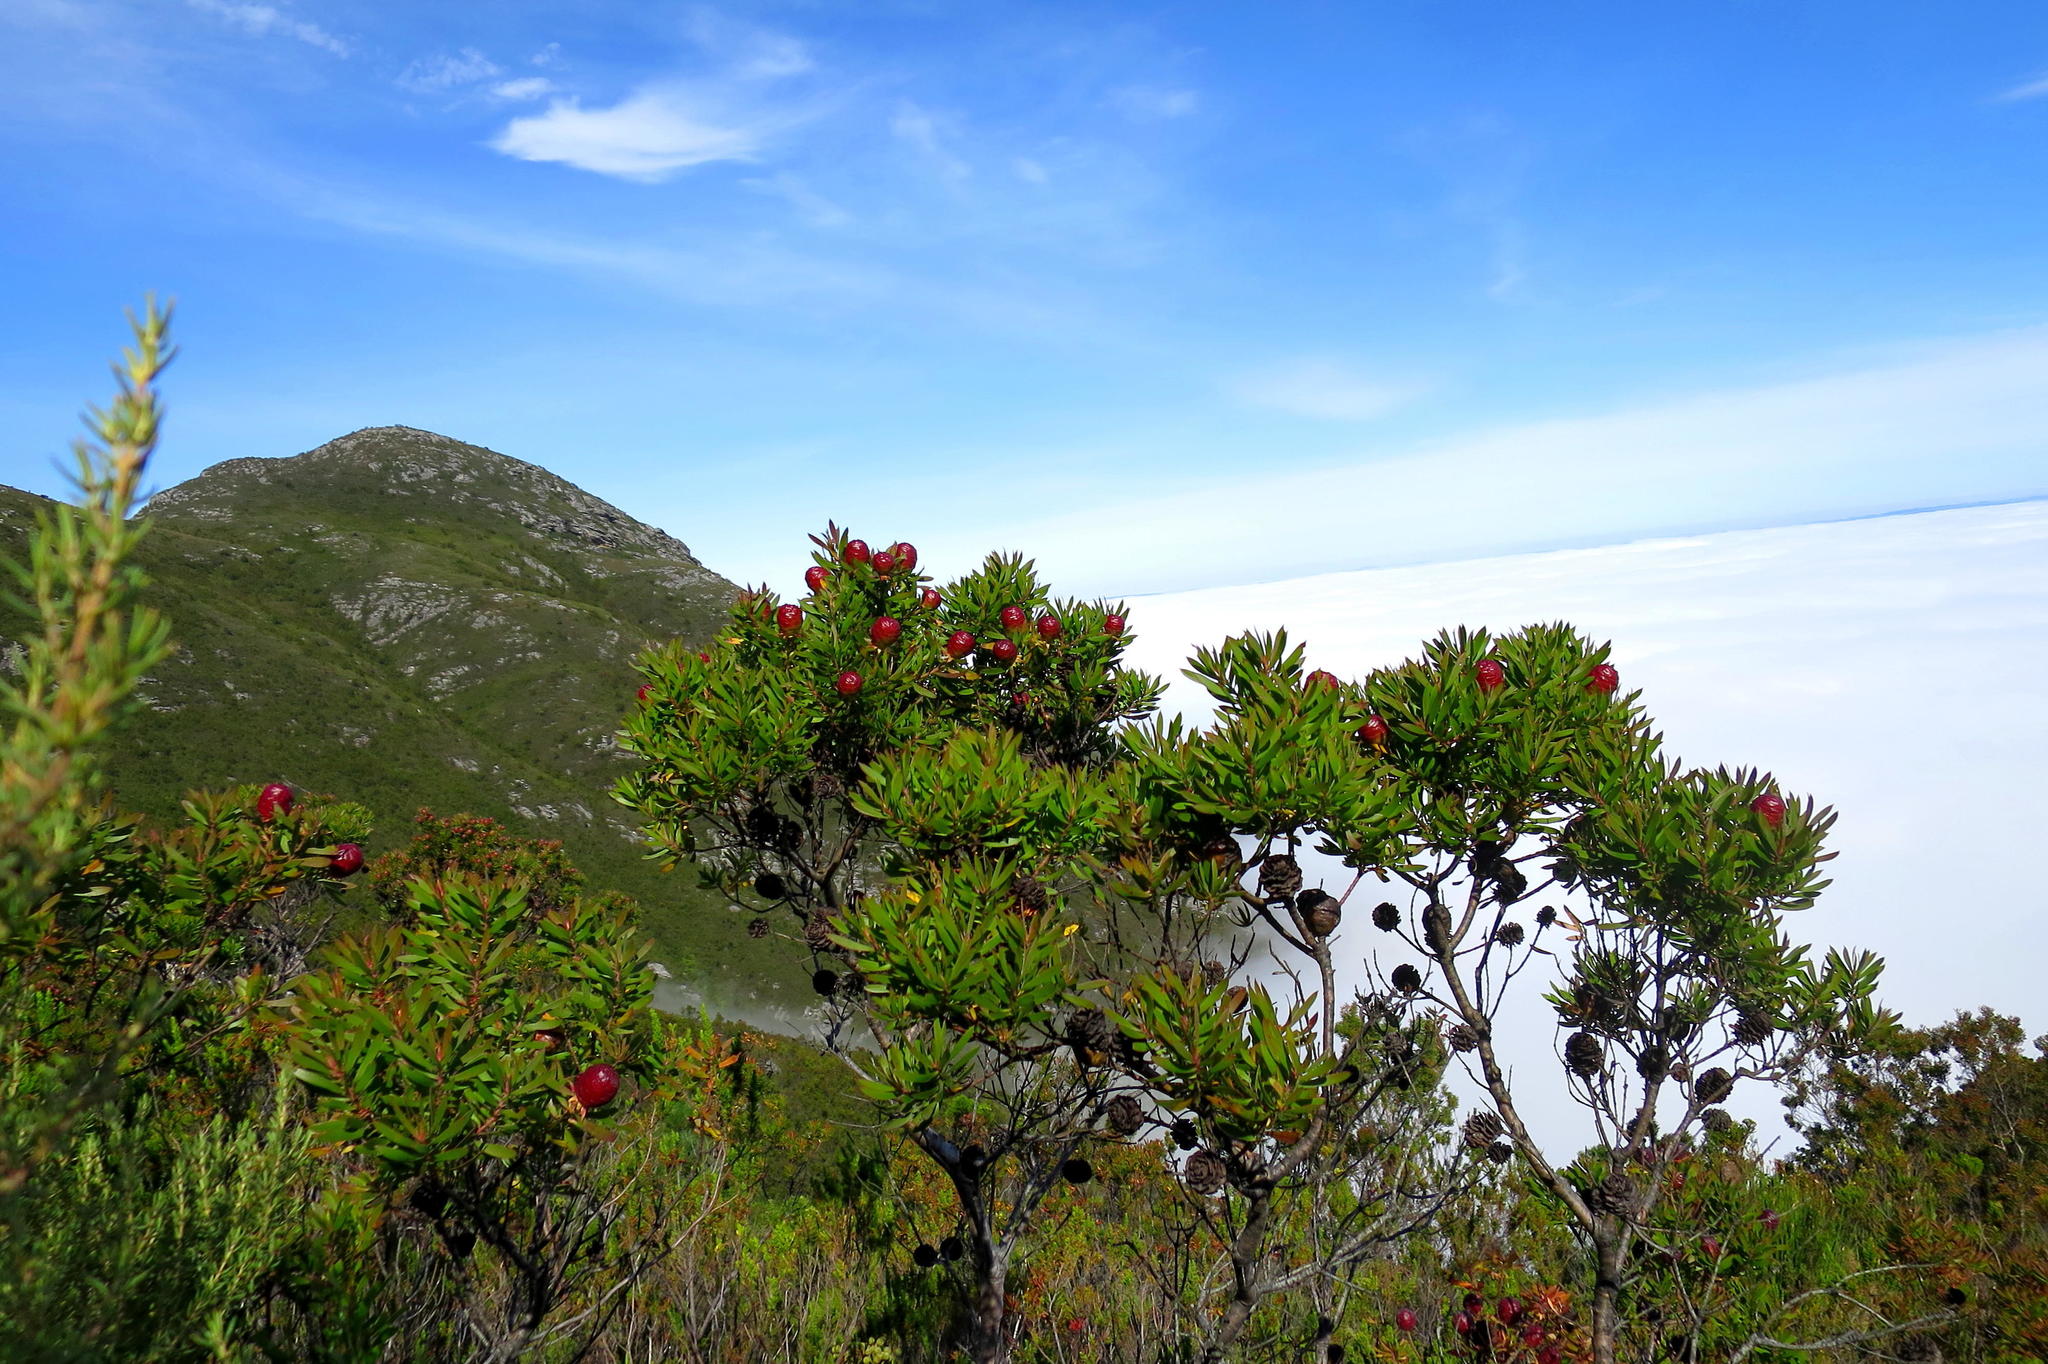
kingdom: Plantae
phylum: Tracheophyta
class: Magnoliopsida
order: Proteales
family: Proteaceae
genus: Leucadendron
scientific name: Leucadendron conicum
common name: Garden route conebush
